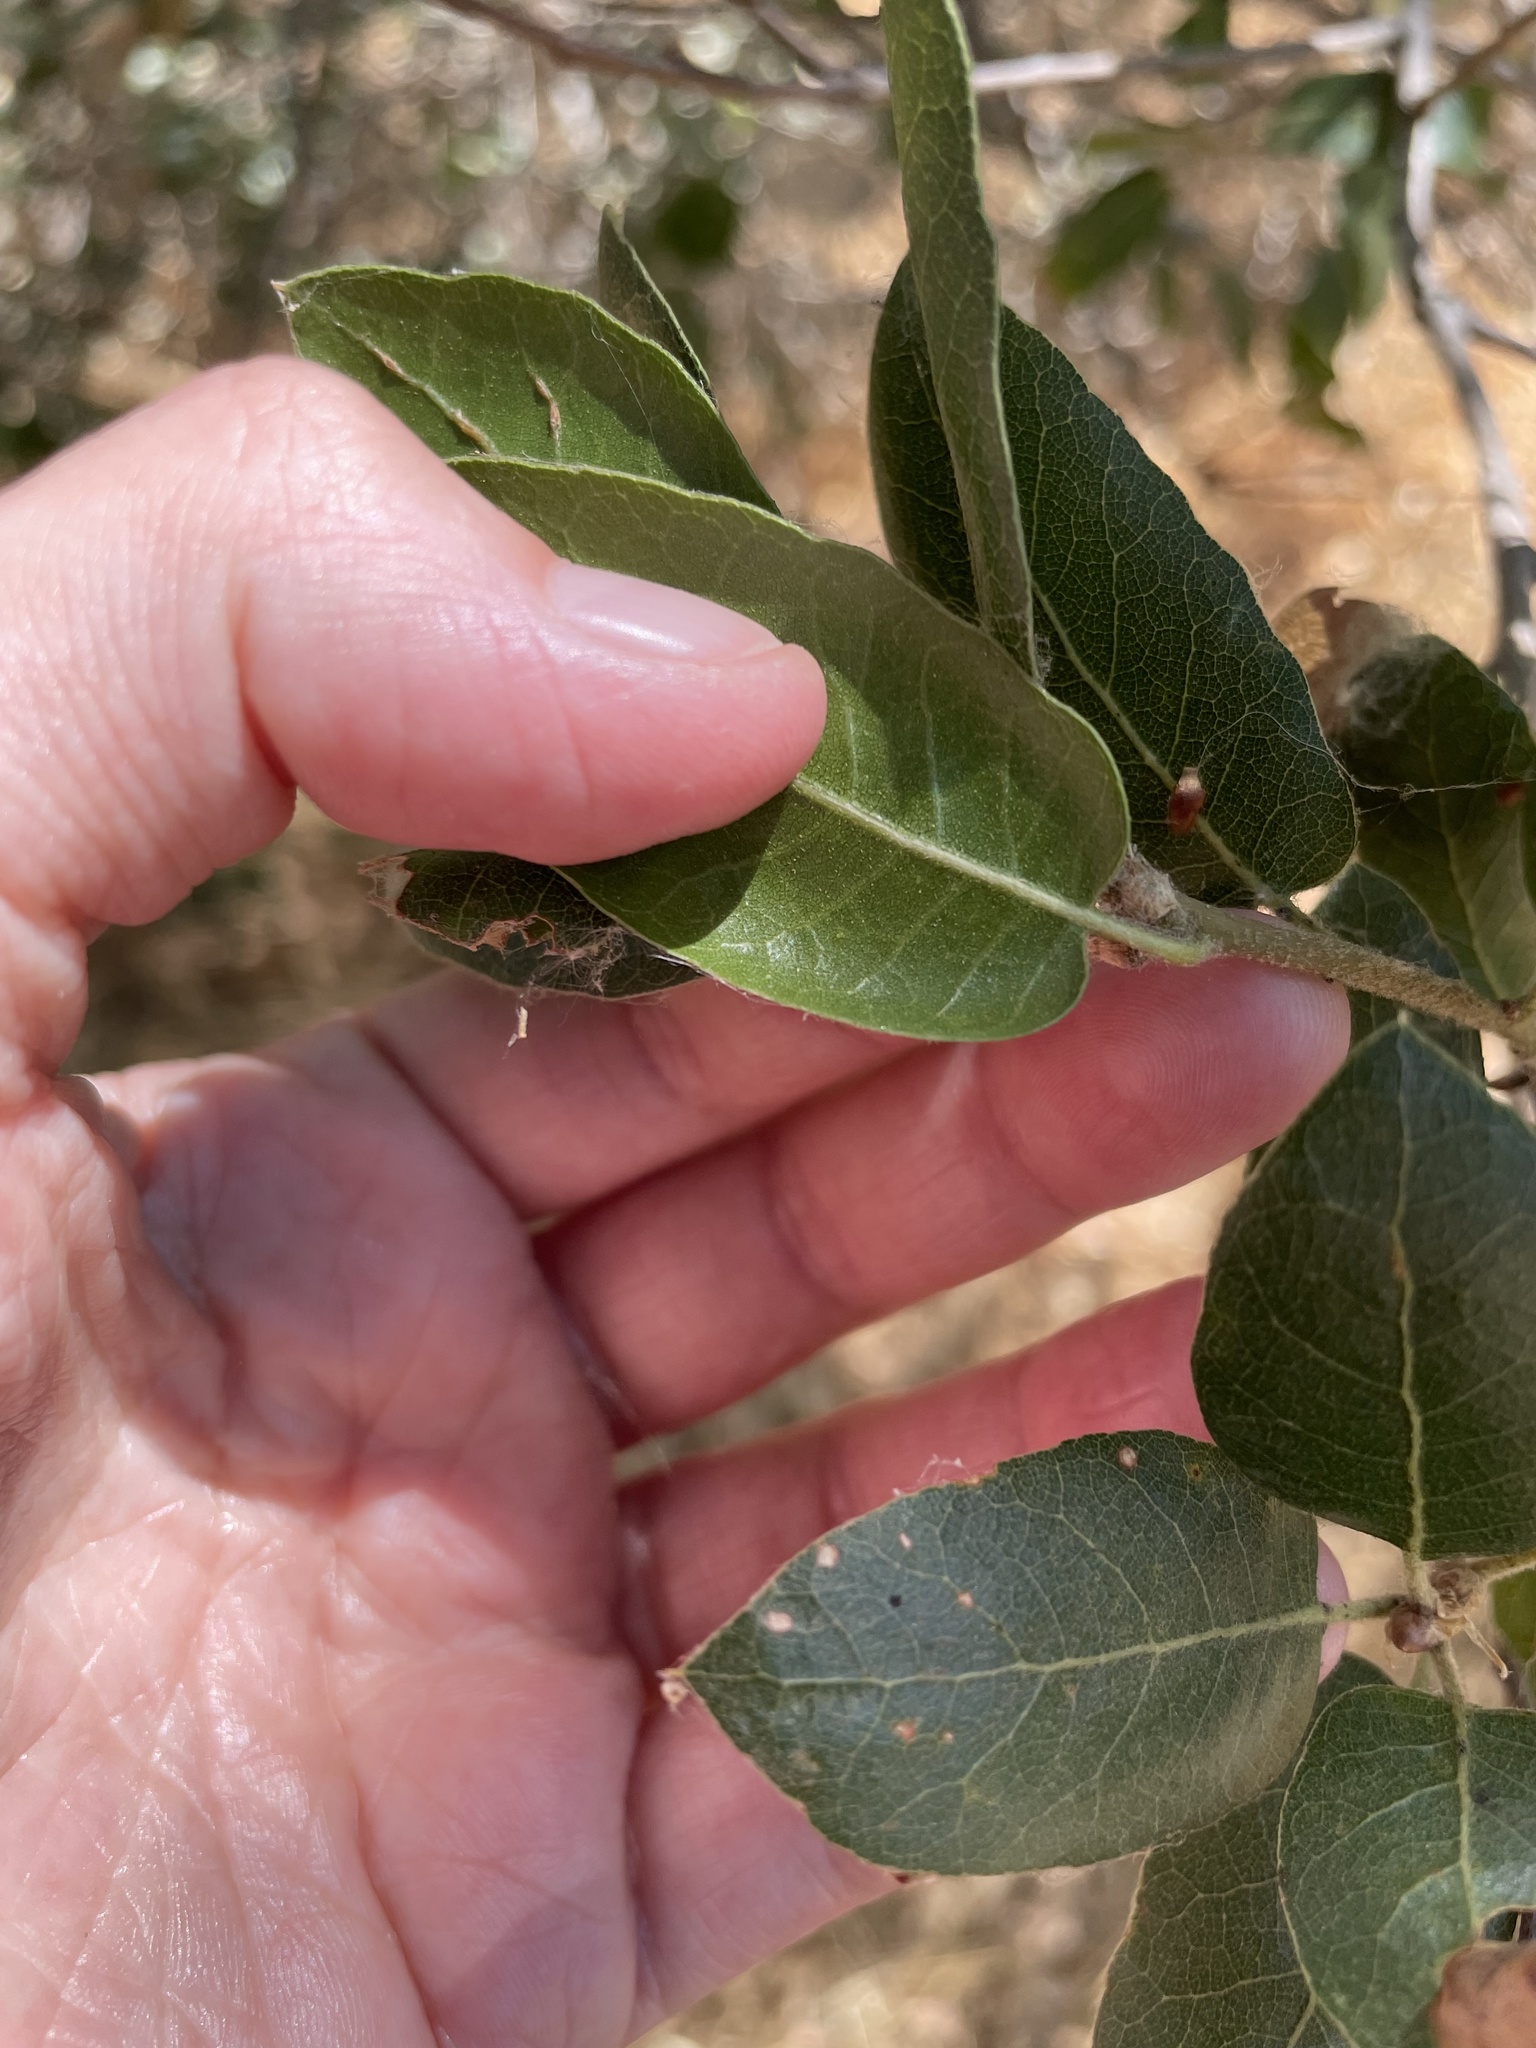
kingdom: Plantae
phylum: Tracheophyta
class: Magnoliopsida
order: Fagales
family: Fagaceae
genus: Quercus
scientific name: Quercus wislizeni
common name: Interior live oak
